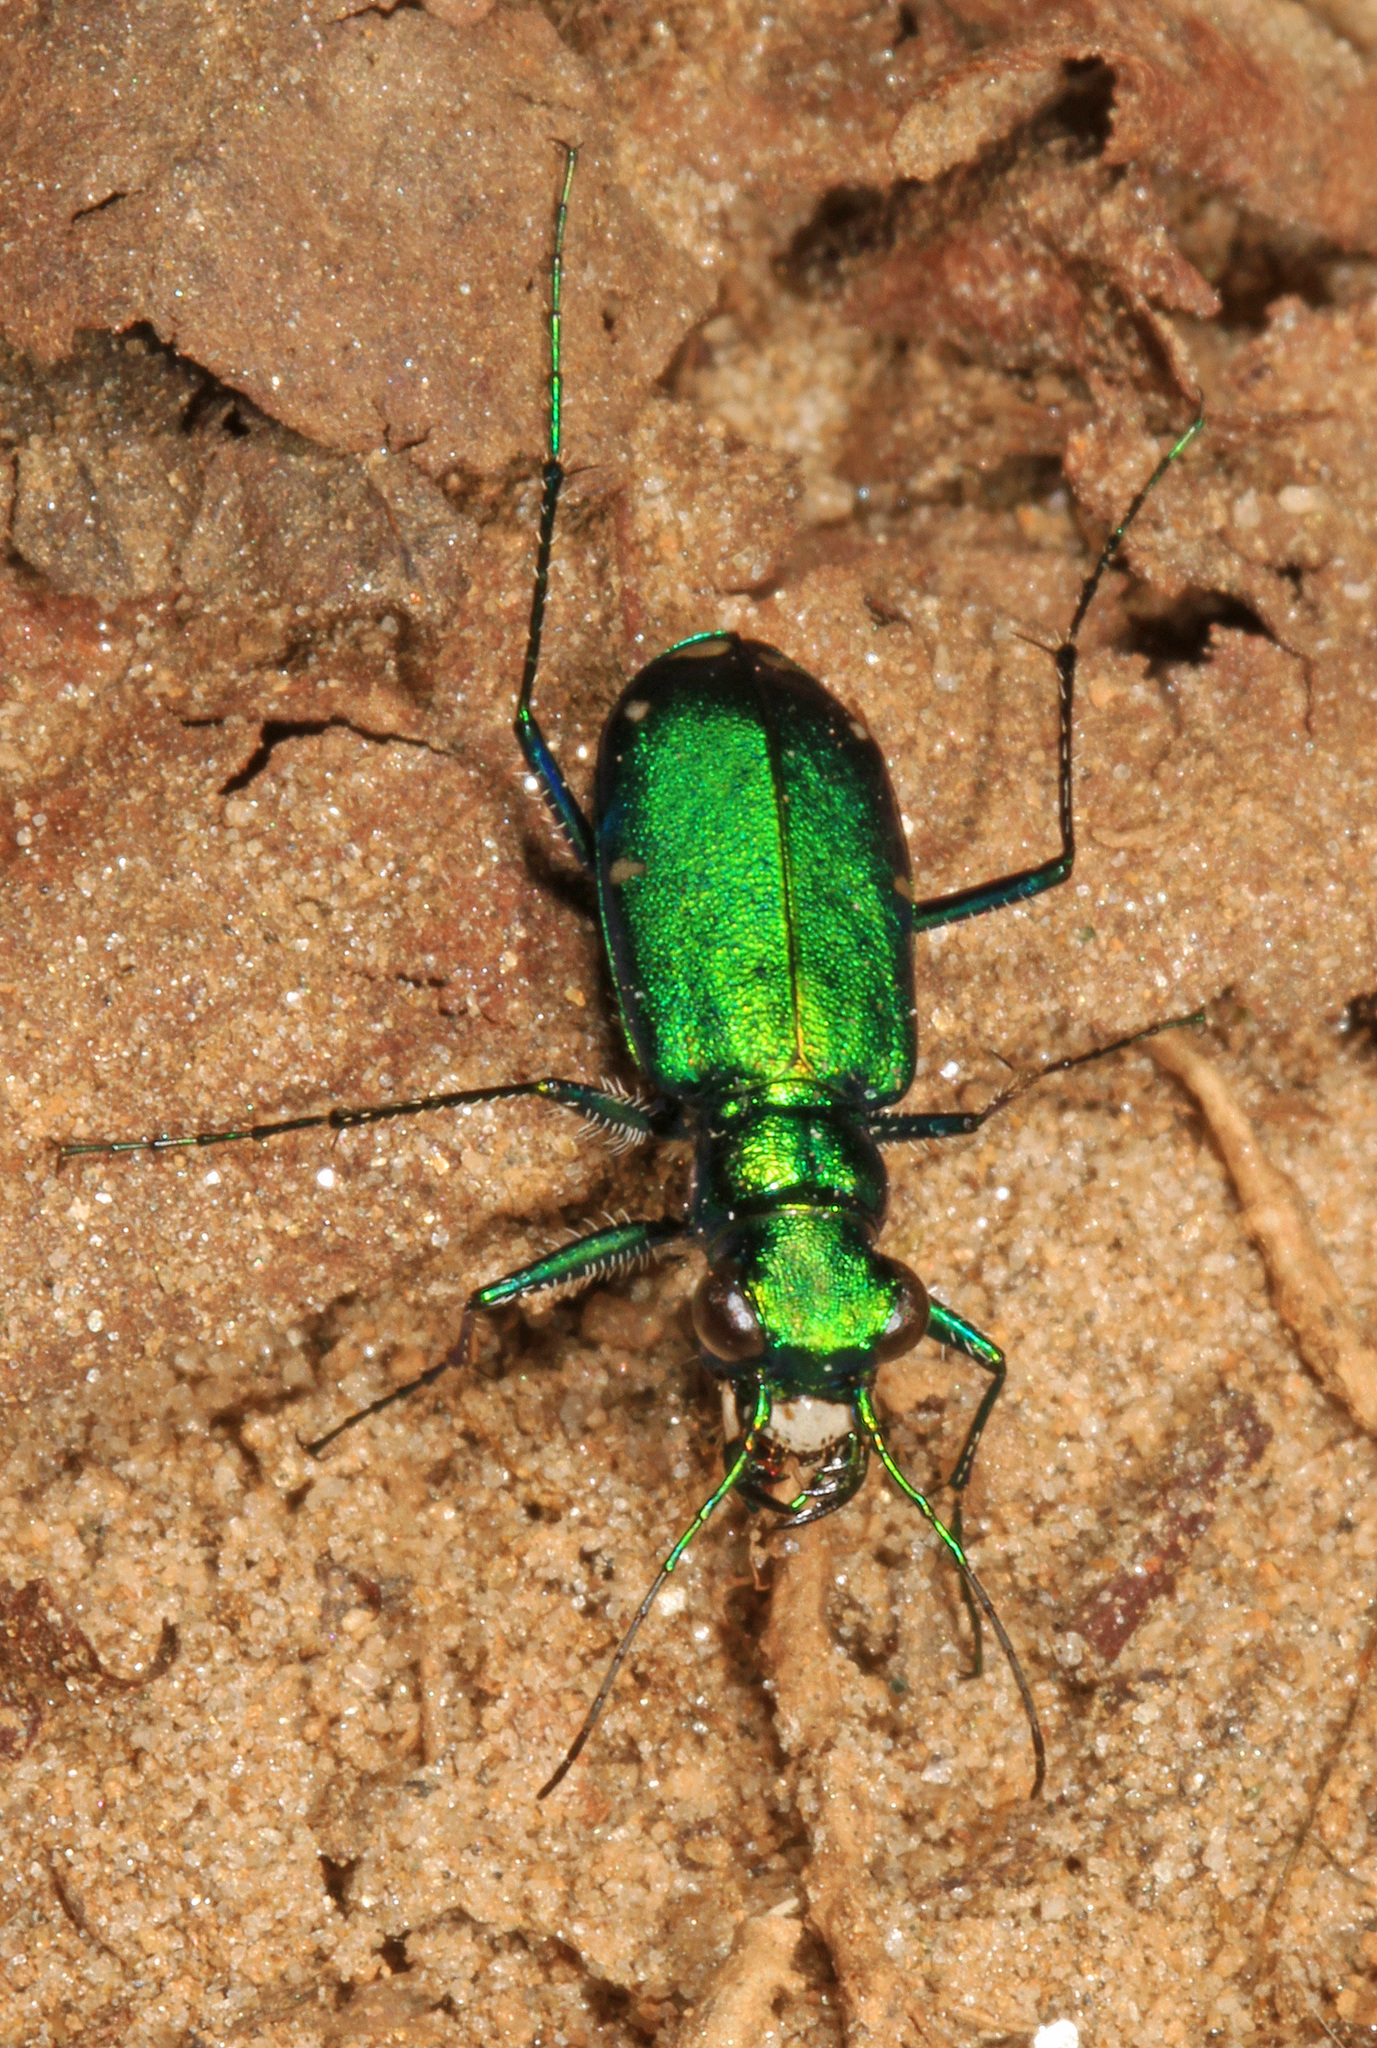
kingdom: Animalia
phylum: Arthropoda
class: Insecta
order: Coleoptera
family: Carabidae
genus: Cicindela
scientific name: Cicindela sexguttata
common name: Six-spotted tiger beetle
